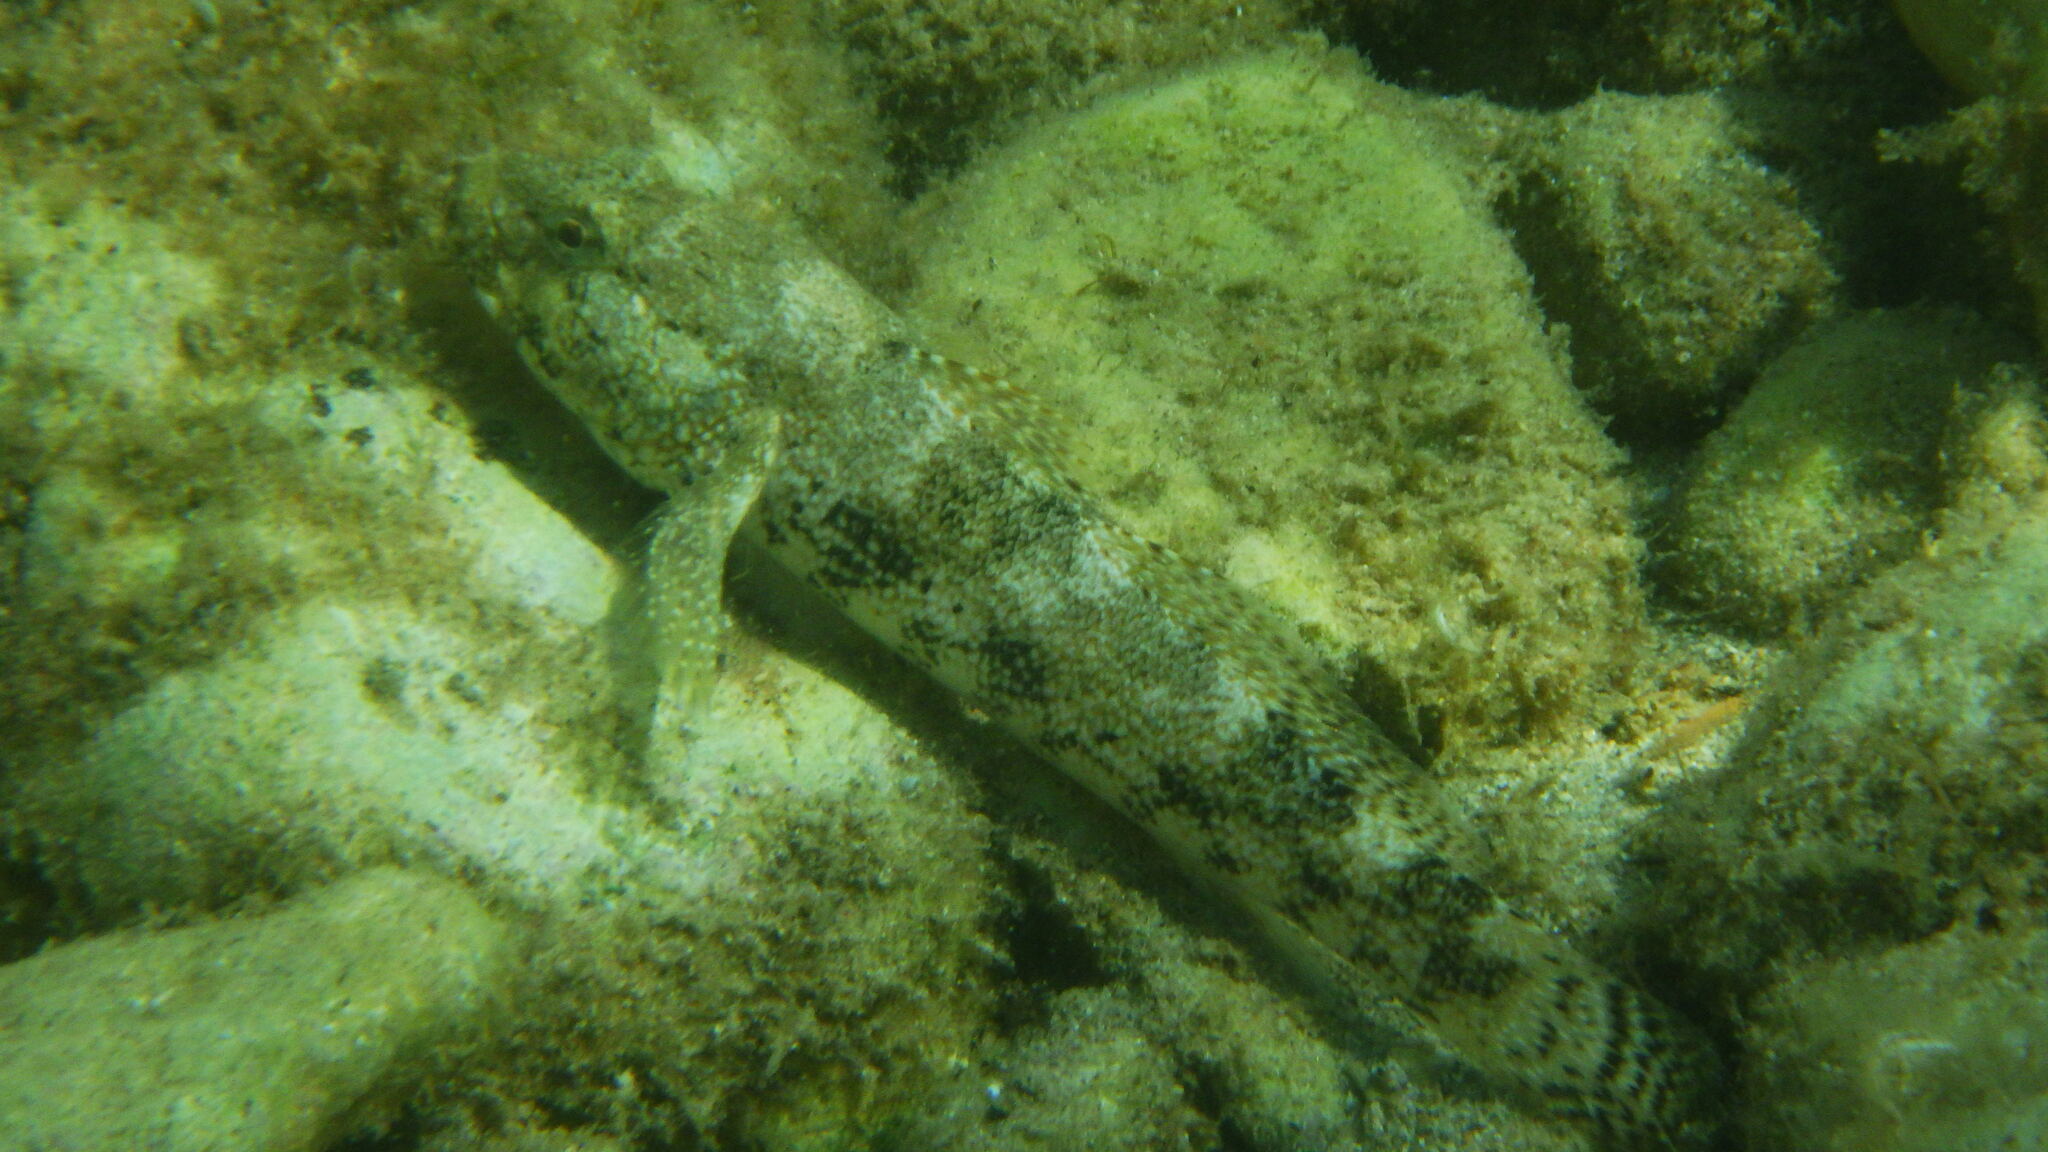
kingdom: Animalia
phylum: Chordata
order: Perciformes
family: Gobiidae
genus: Gobius
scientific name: Gobius cobitis
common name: Giant goby
